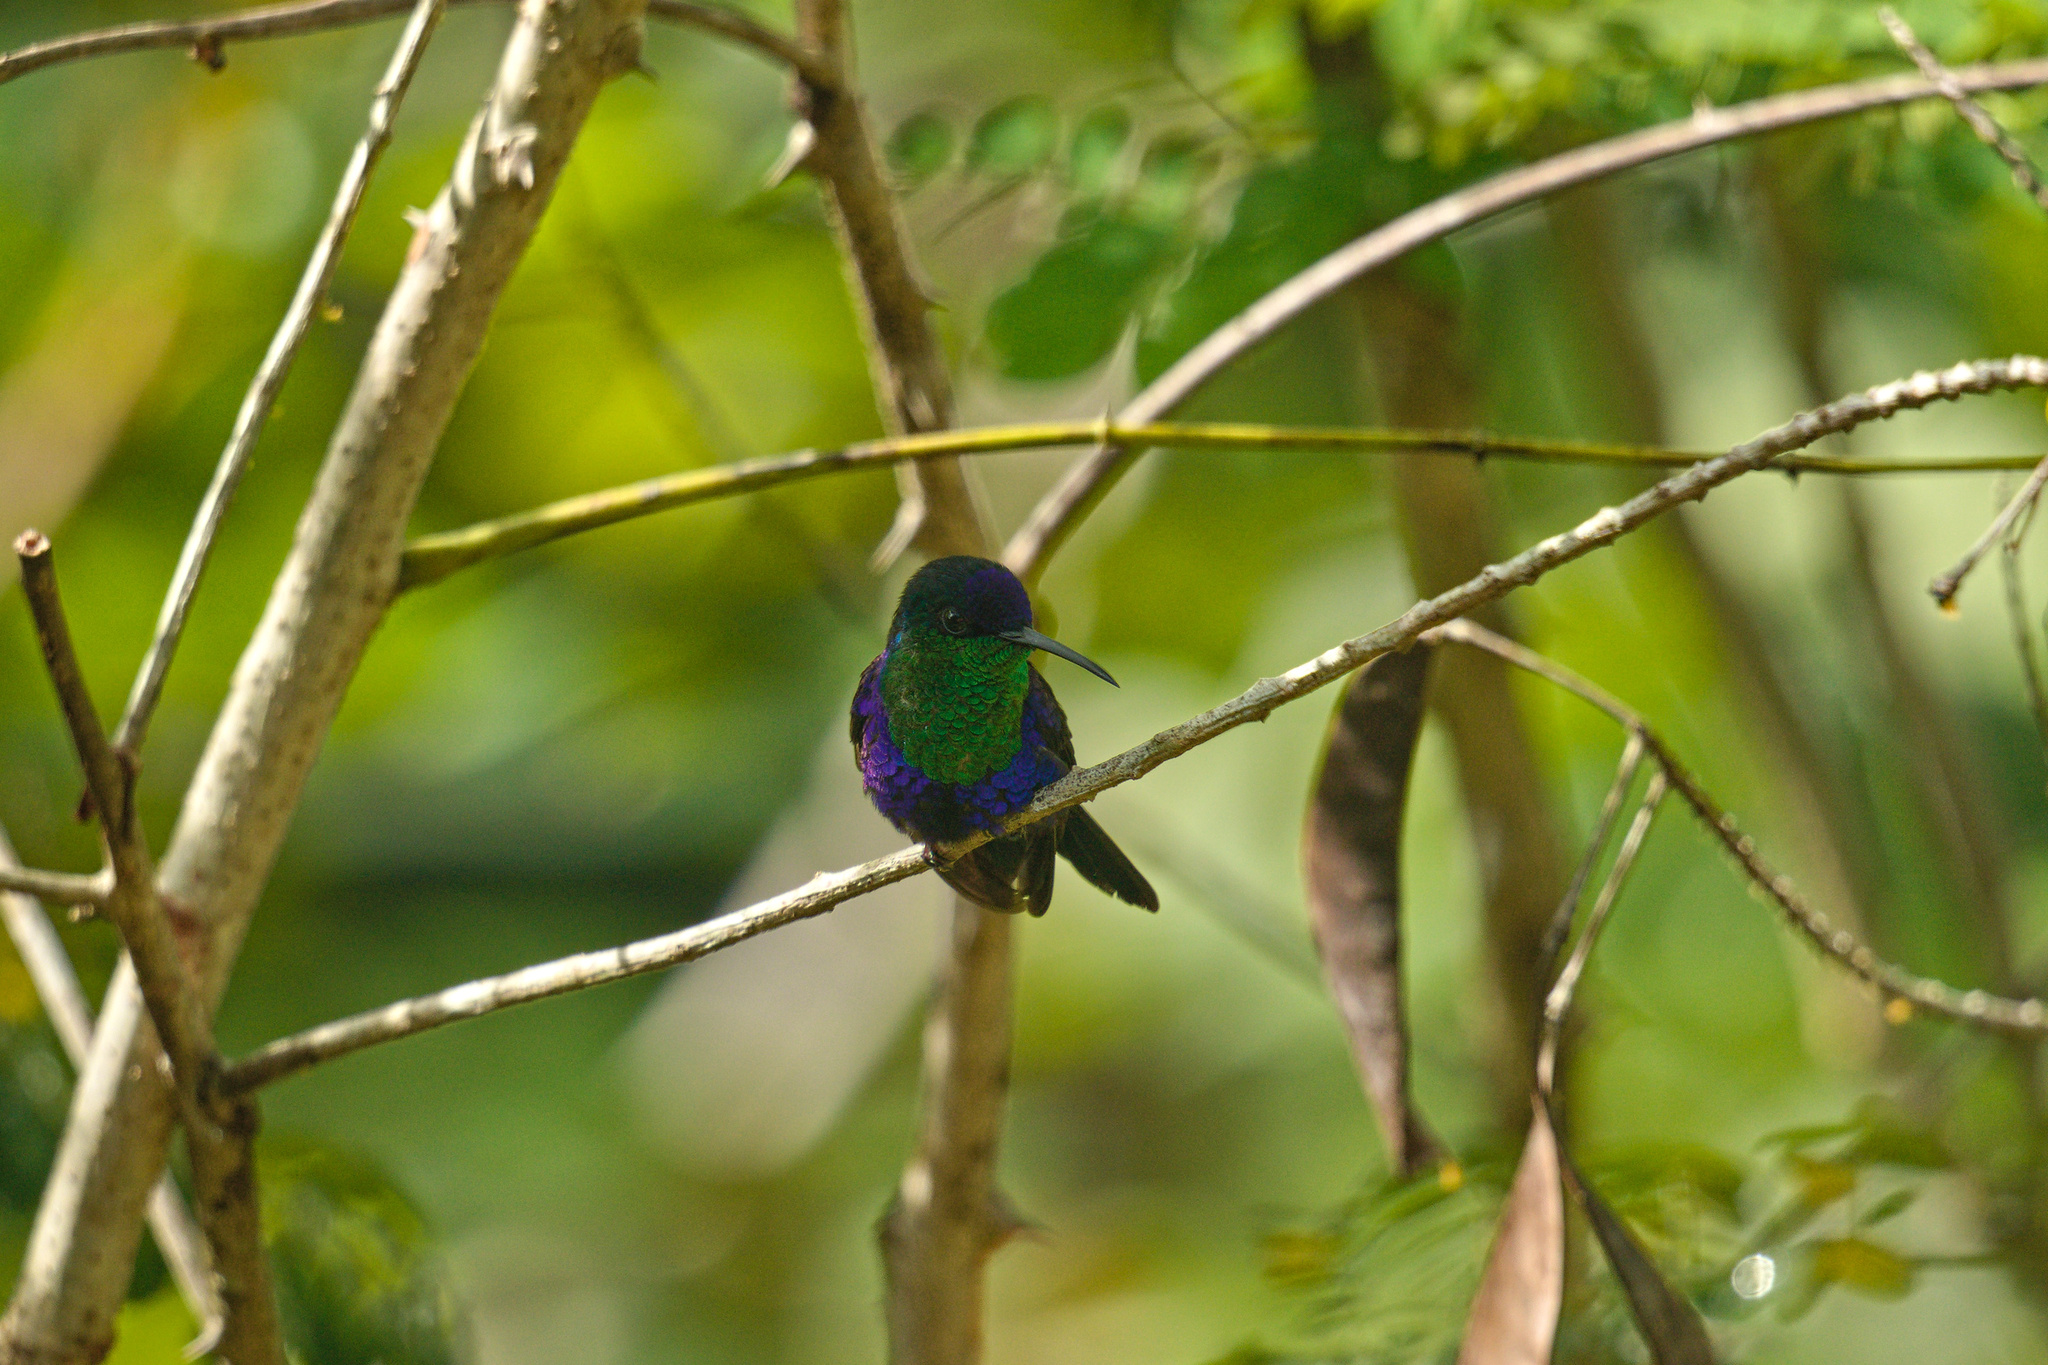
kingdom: Animalia
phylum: Chordata
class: Aves
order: Apodiformes
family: Trochilidae
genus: Thalurania
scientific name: Thalurania colombica
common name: Crowned woodnymph
